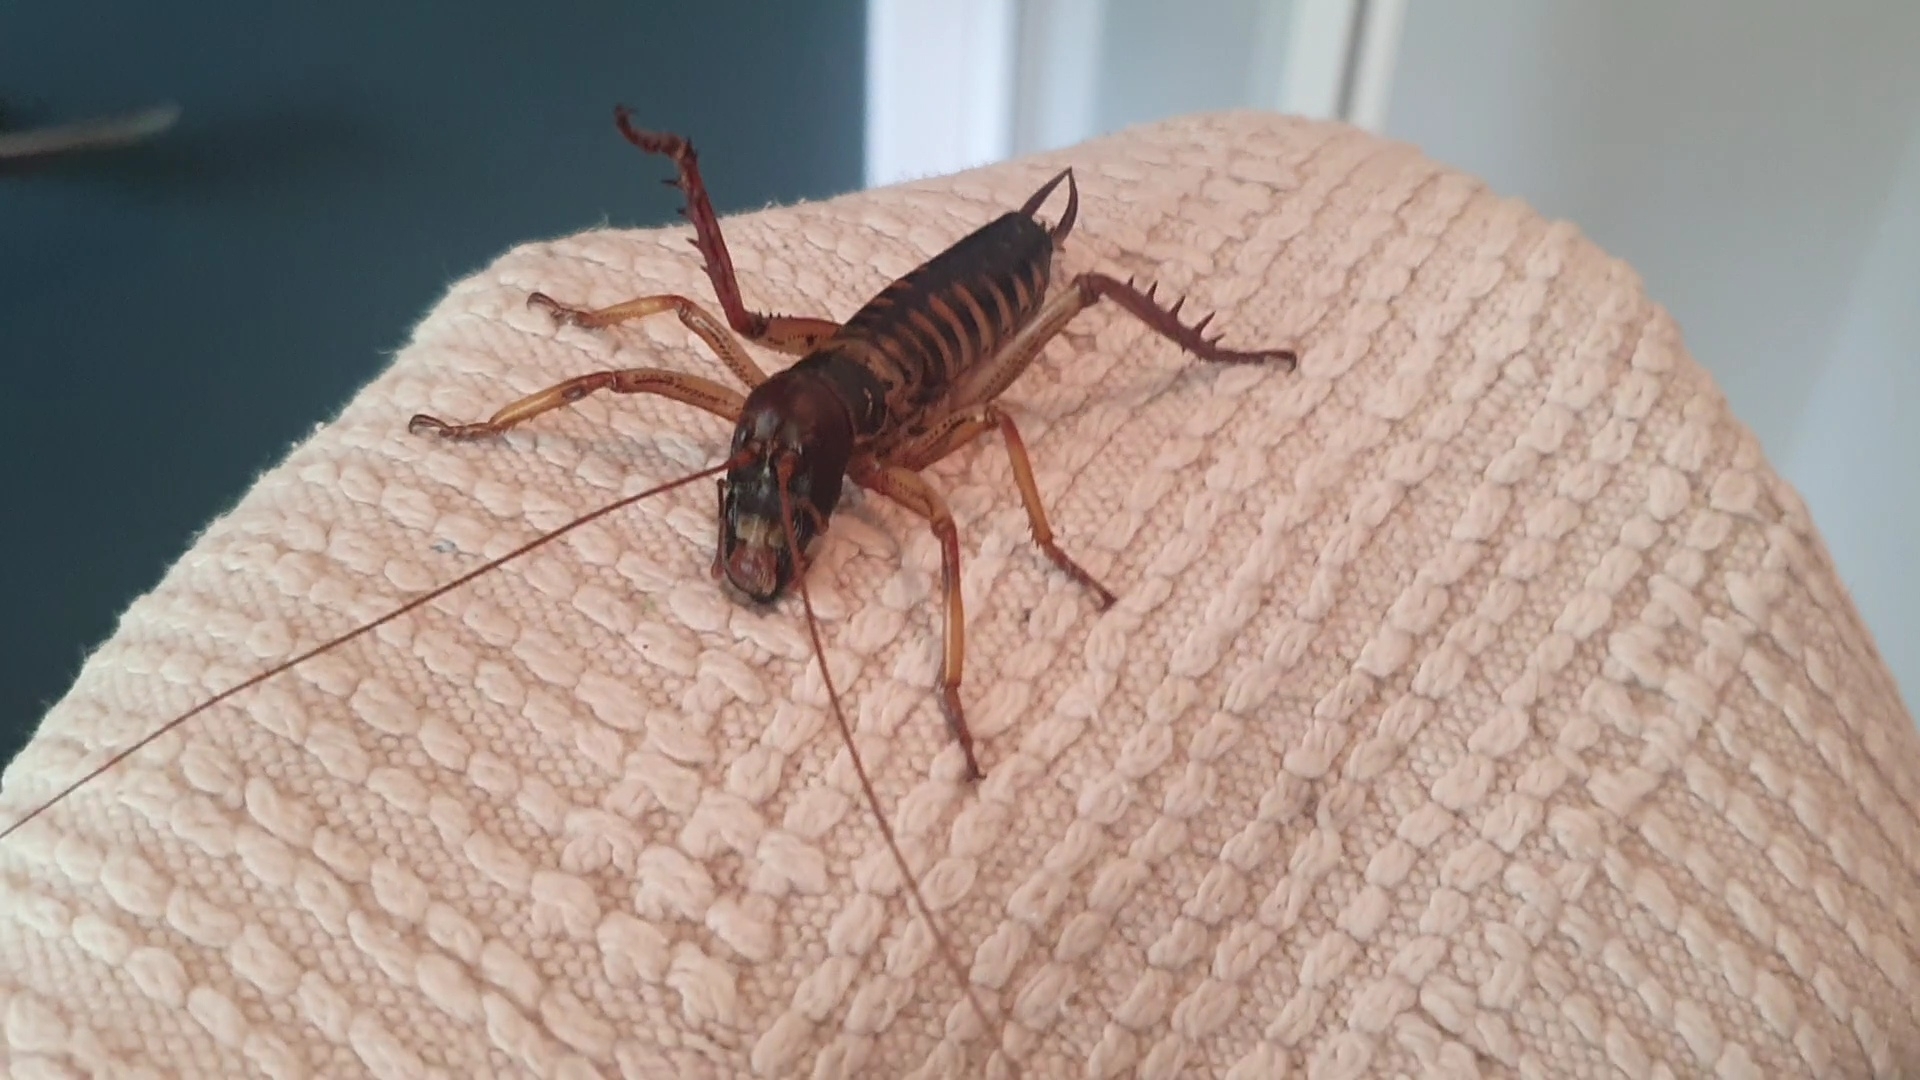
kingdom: Animalia
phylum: Arthropoda
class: Insecta
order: Orthoptera
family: Anostostomatidae
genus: Hemideina
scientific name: Hemideina crassidens
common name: Wellington tree weta
